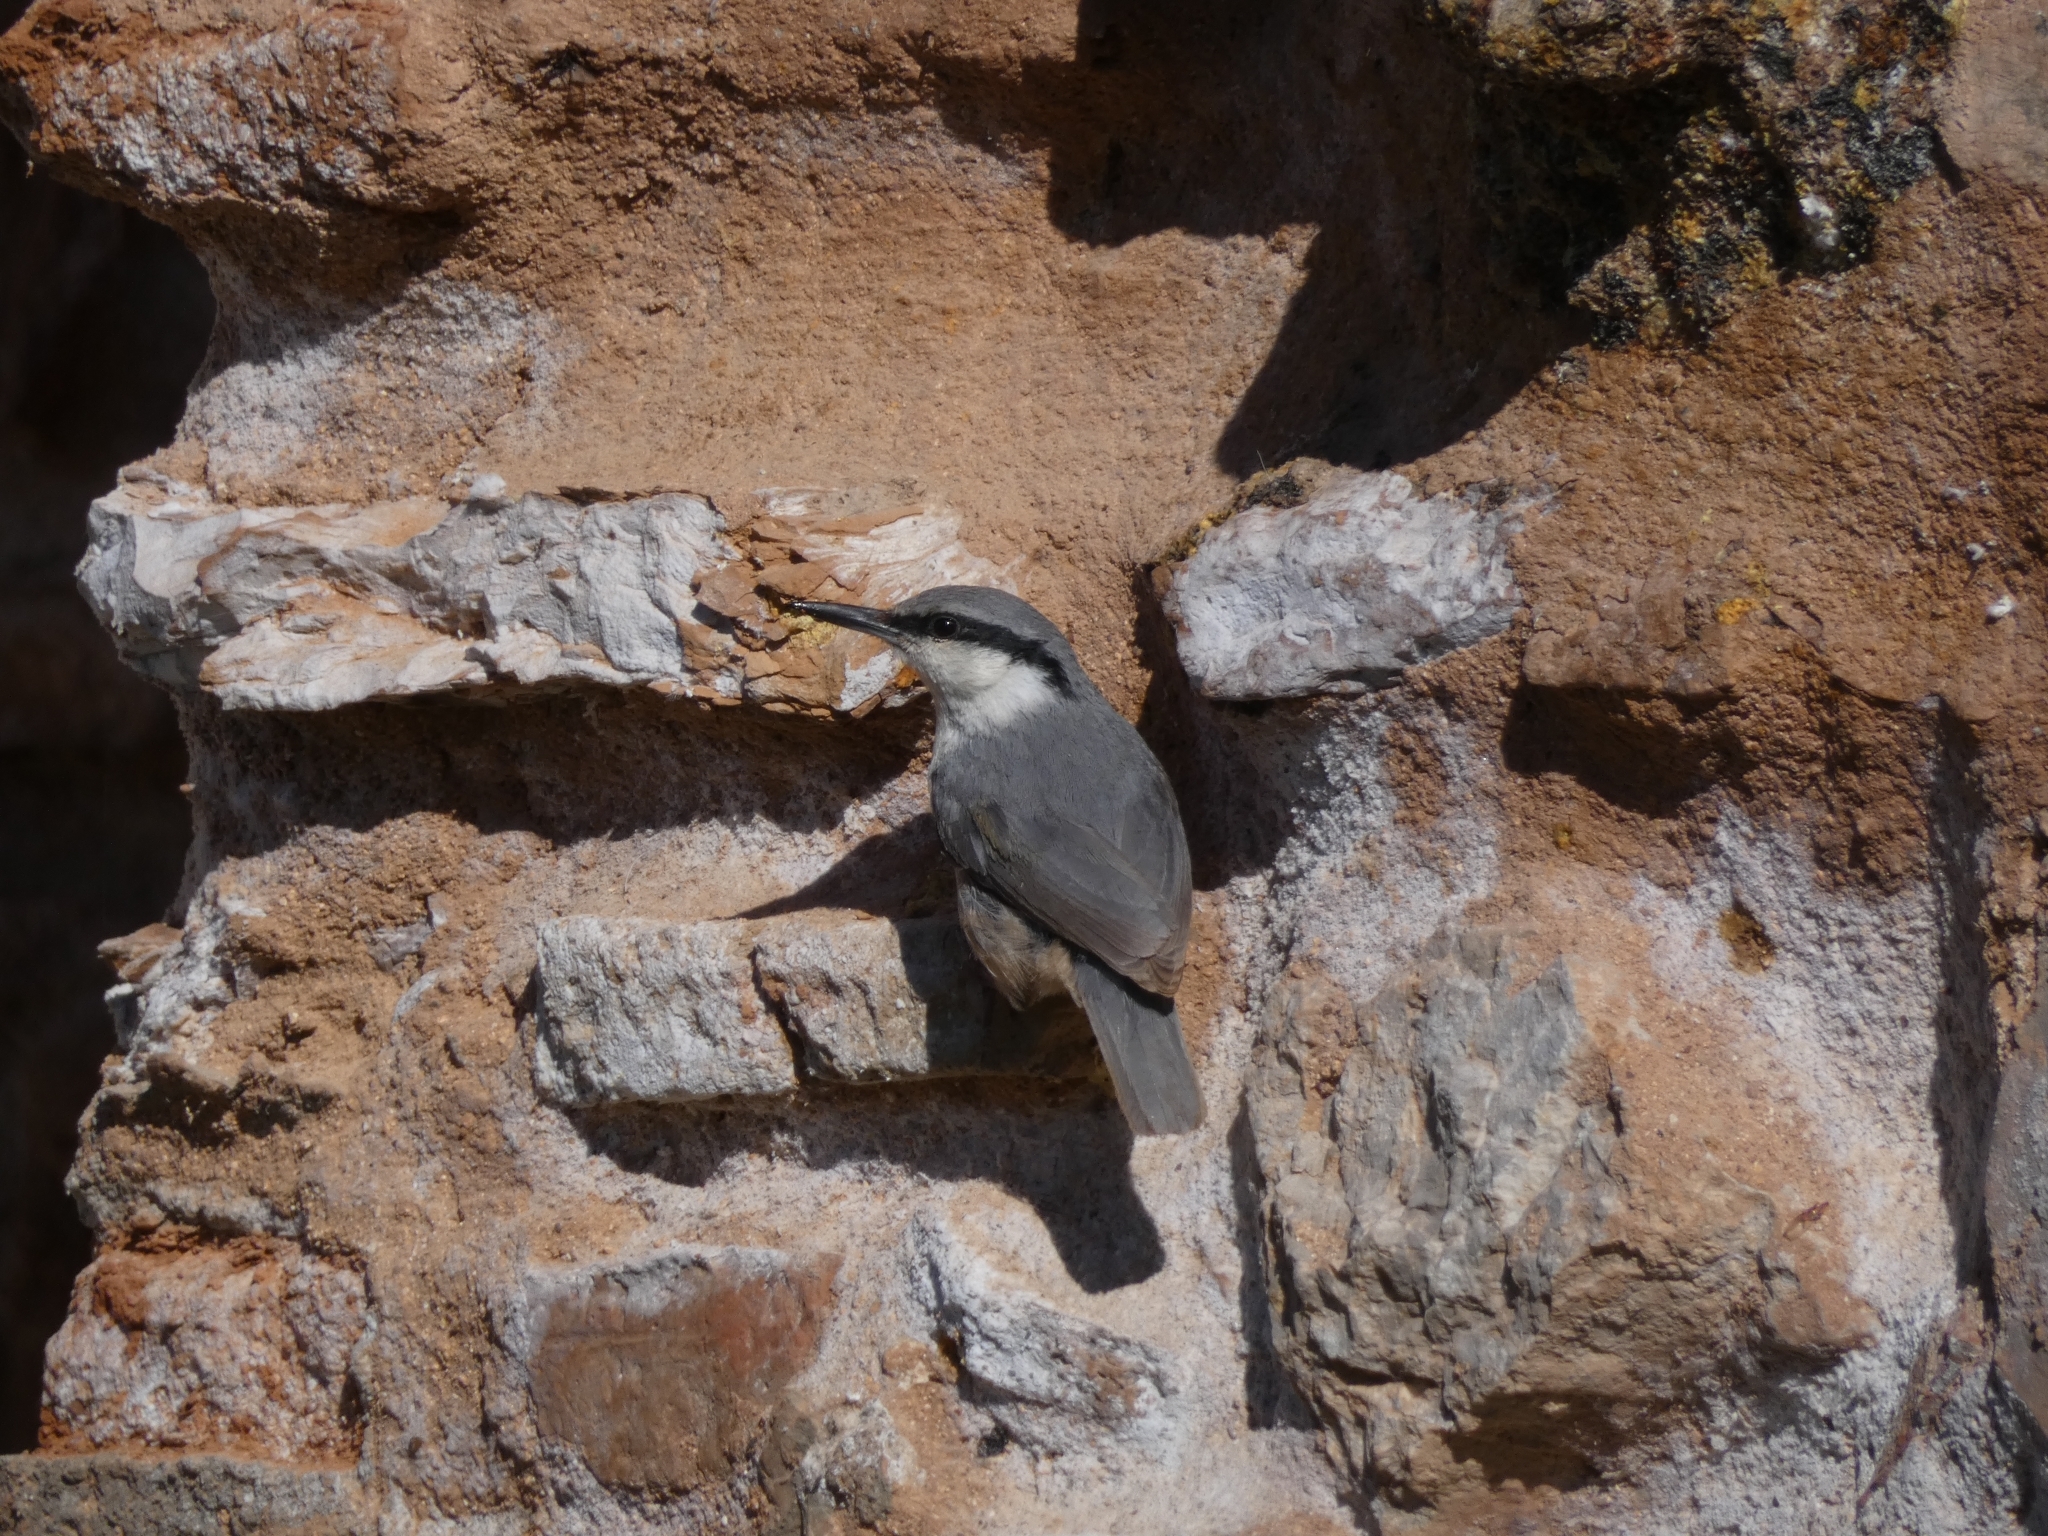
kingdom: Animalia
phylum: Chordata
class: Aves
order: Passeriformes
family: Sittidae
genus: Sitta
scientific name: Sitta neumayer
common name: Western rock nuthatch
